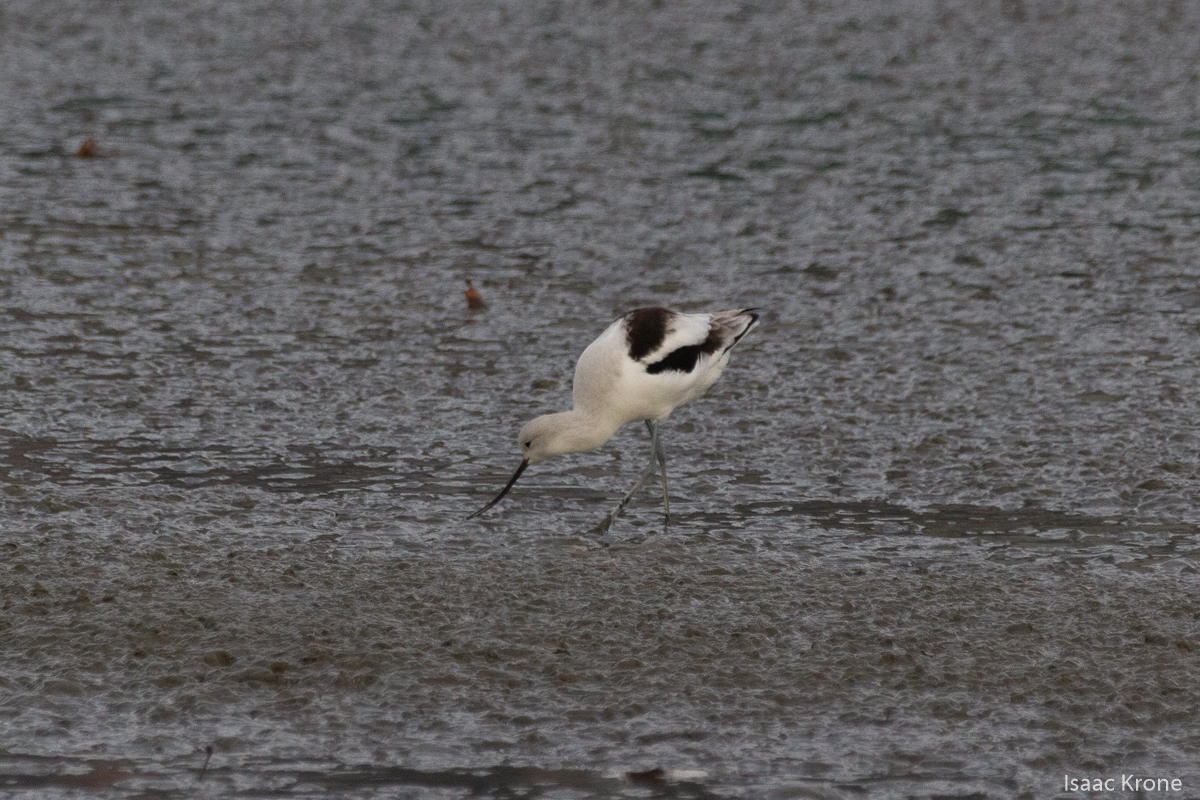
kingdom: Animalia
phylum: Chordata
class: Aves
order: Charadriiformes
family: Recurvirostridae
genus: Recurvirostra
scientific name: Recurvirostra americana
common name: American avocet
